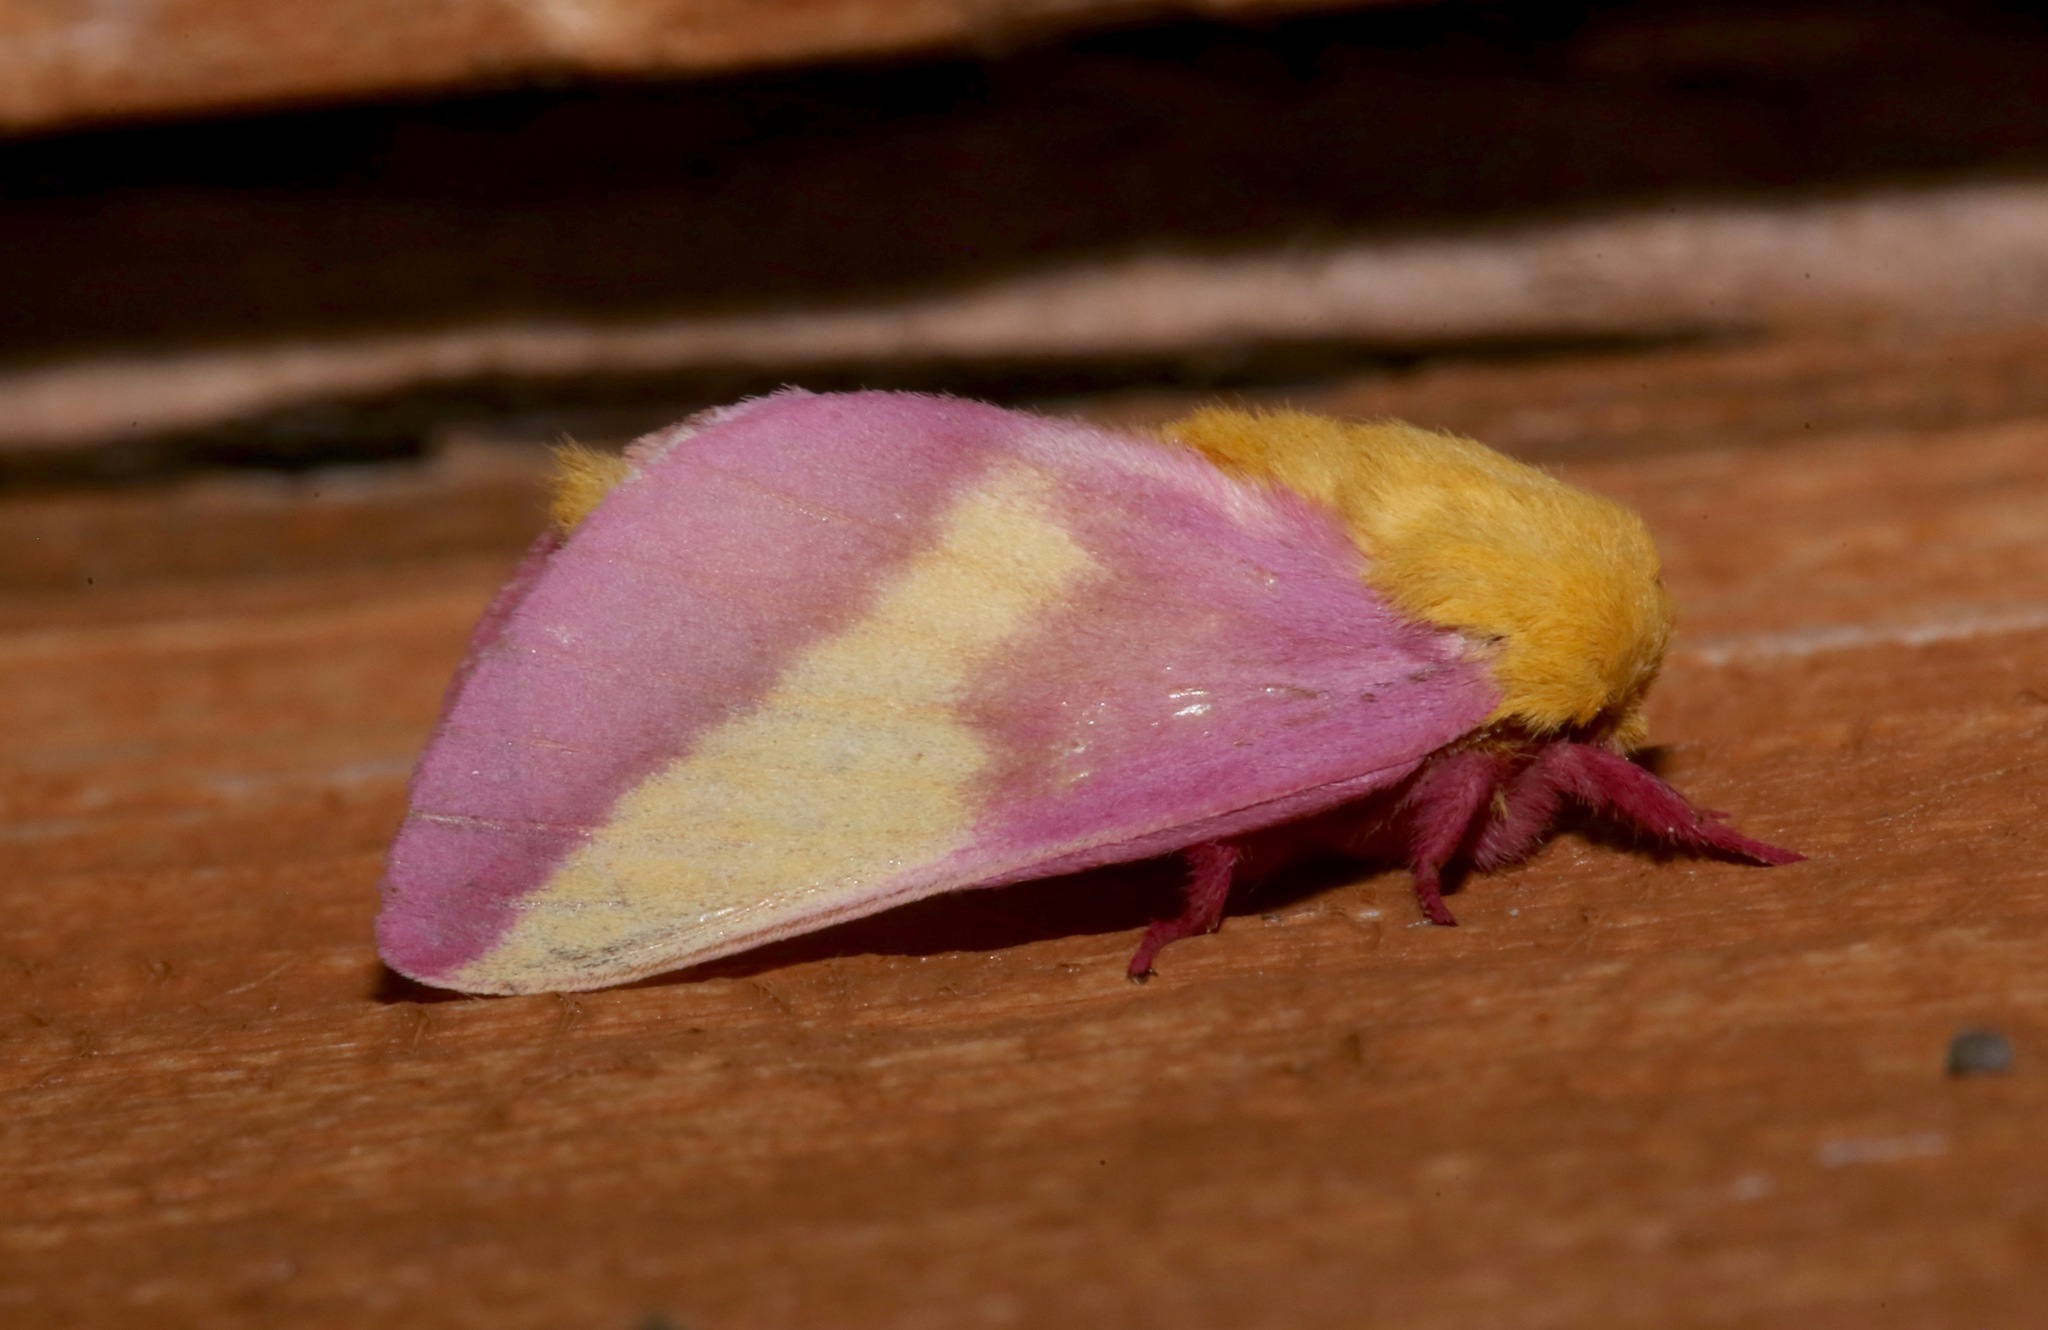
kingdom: Animalia
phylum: Arthropoda
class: Insecta
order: Lepidoptera
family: Saturniidae
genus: Dryocampa
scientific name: Dryocampa rubicunda
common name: Rosy maple moth
